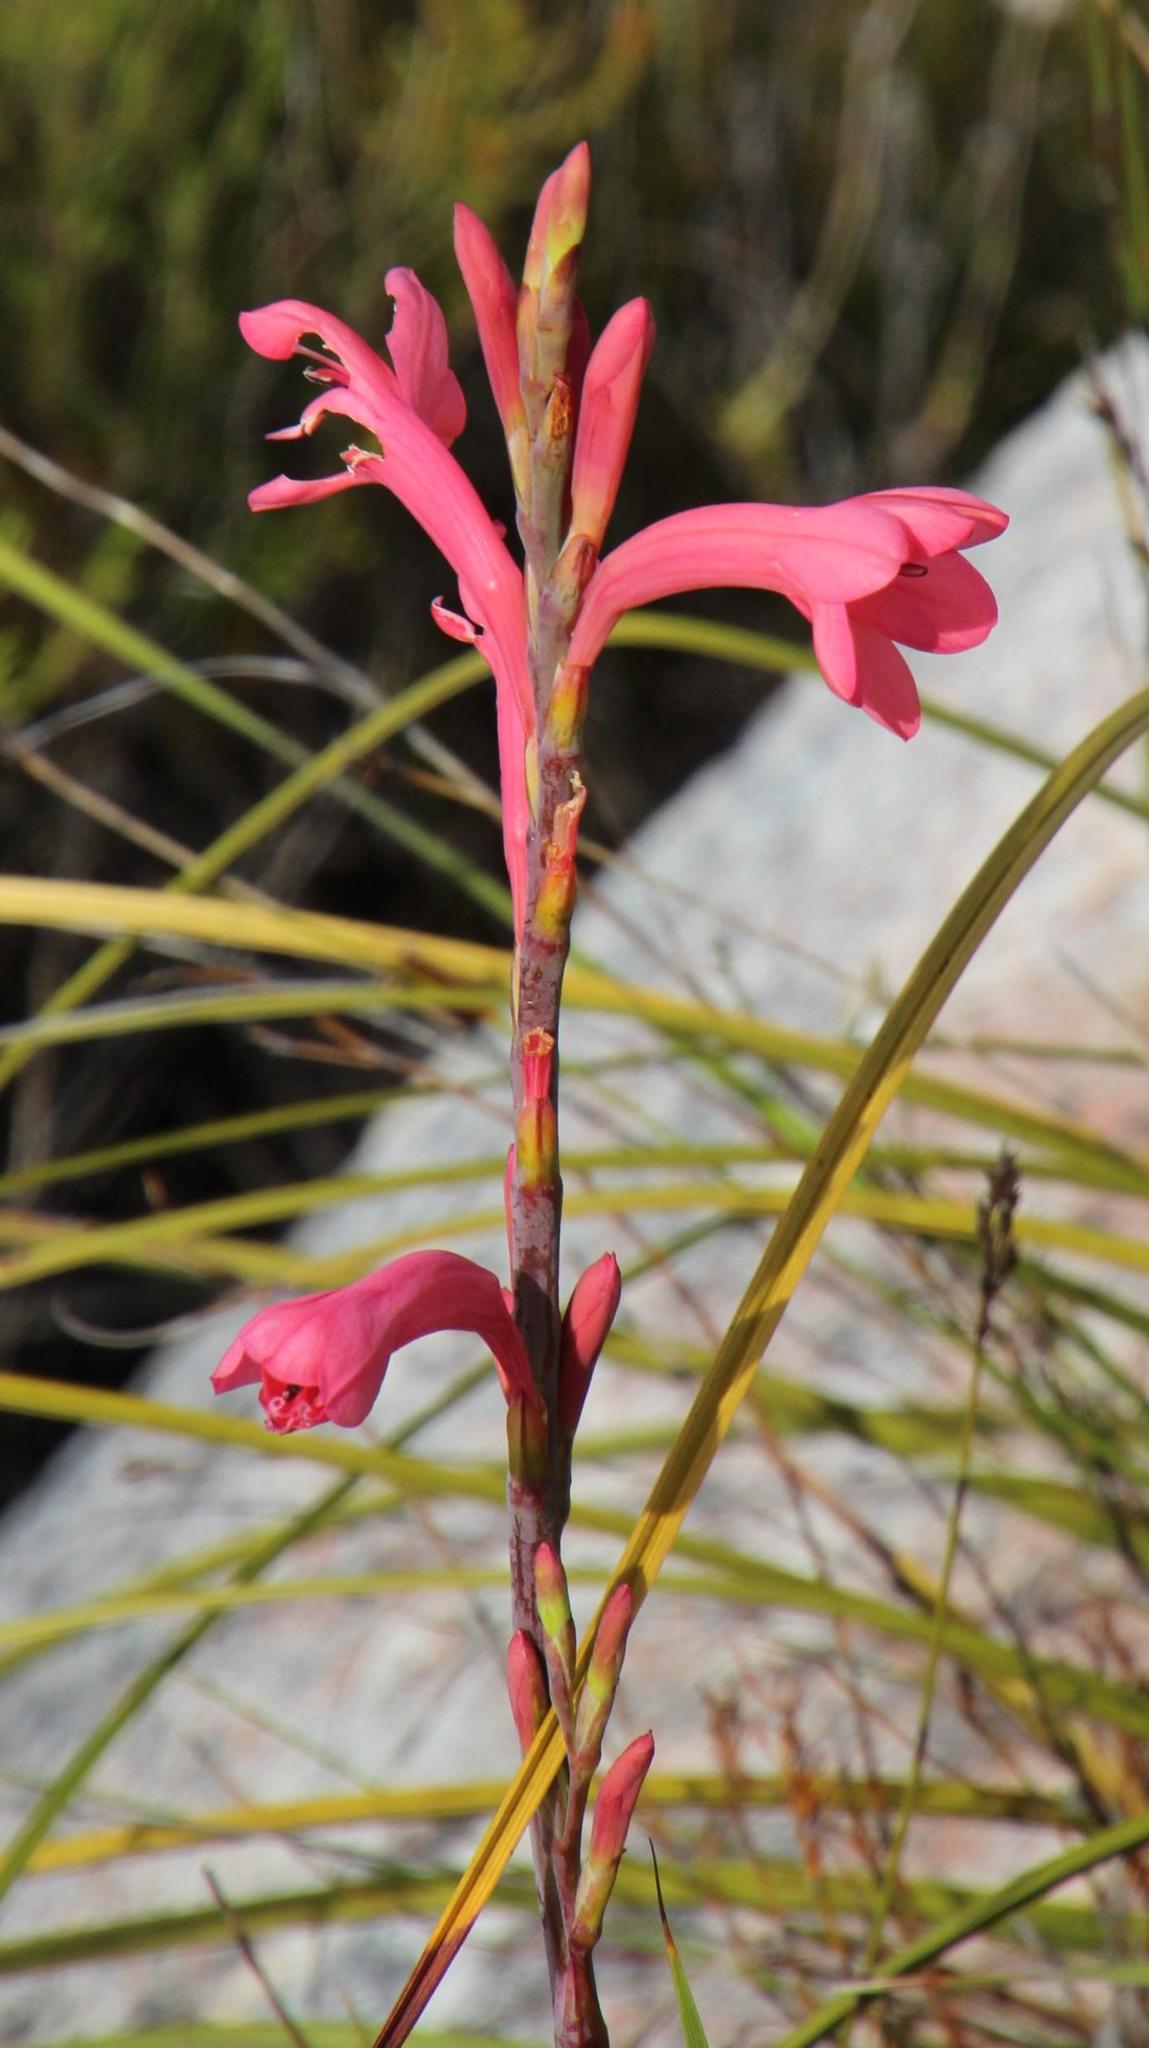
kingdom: Plantae
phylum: Tracheophyta
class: Liliopsida
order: Asparagales
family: Iridaceae
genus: Watsonia
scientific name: Watsonia paucifolia
